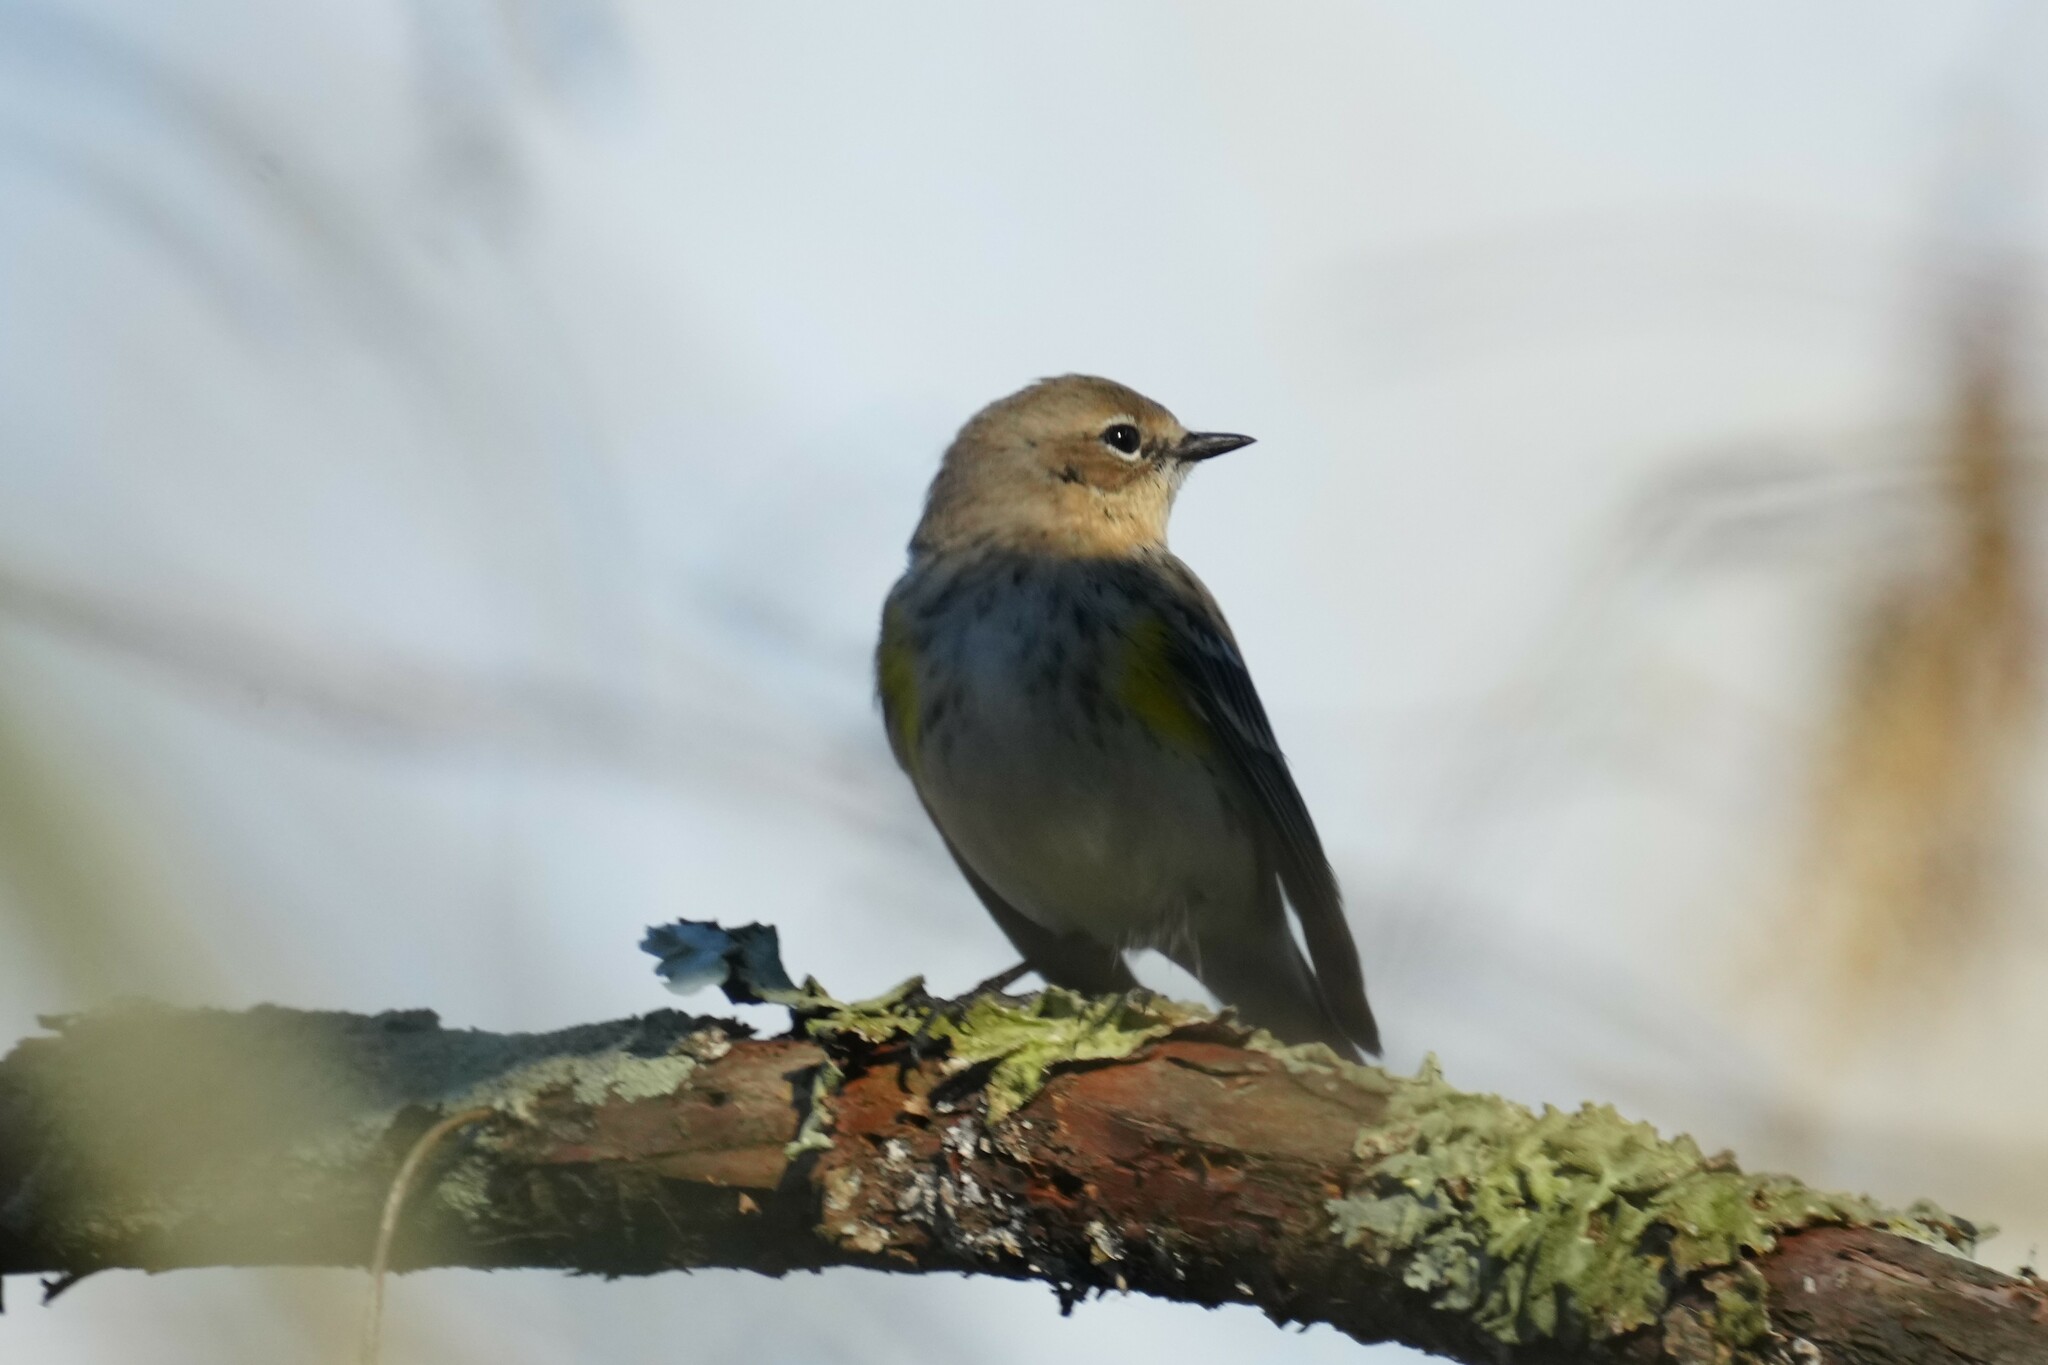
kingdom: Animalia
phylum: Chordata
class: Aves
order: Passeriformes
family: Parulidae
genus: Setophaga
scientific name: Setophaga coronata
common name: Myrtle warbler
